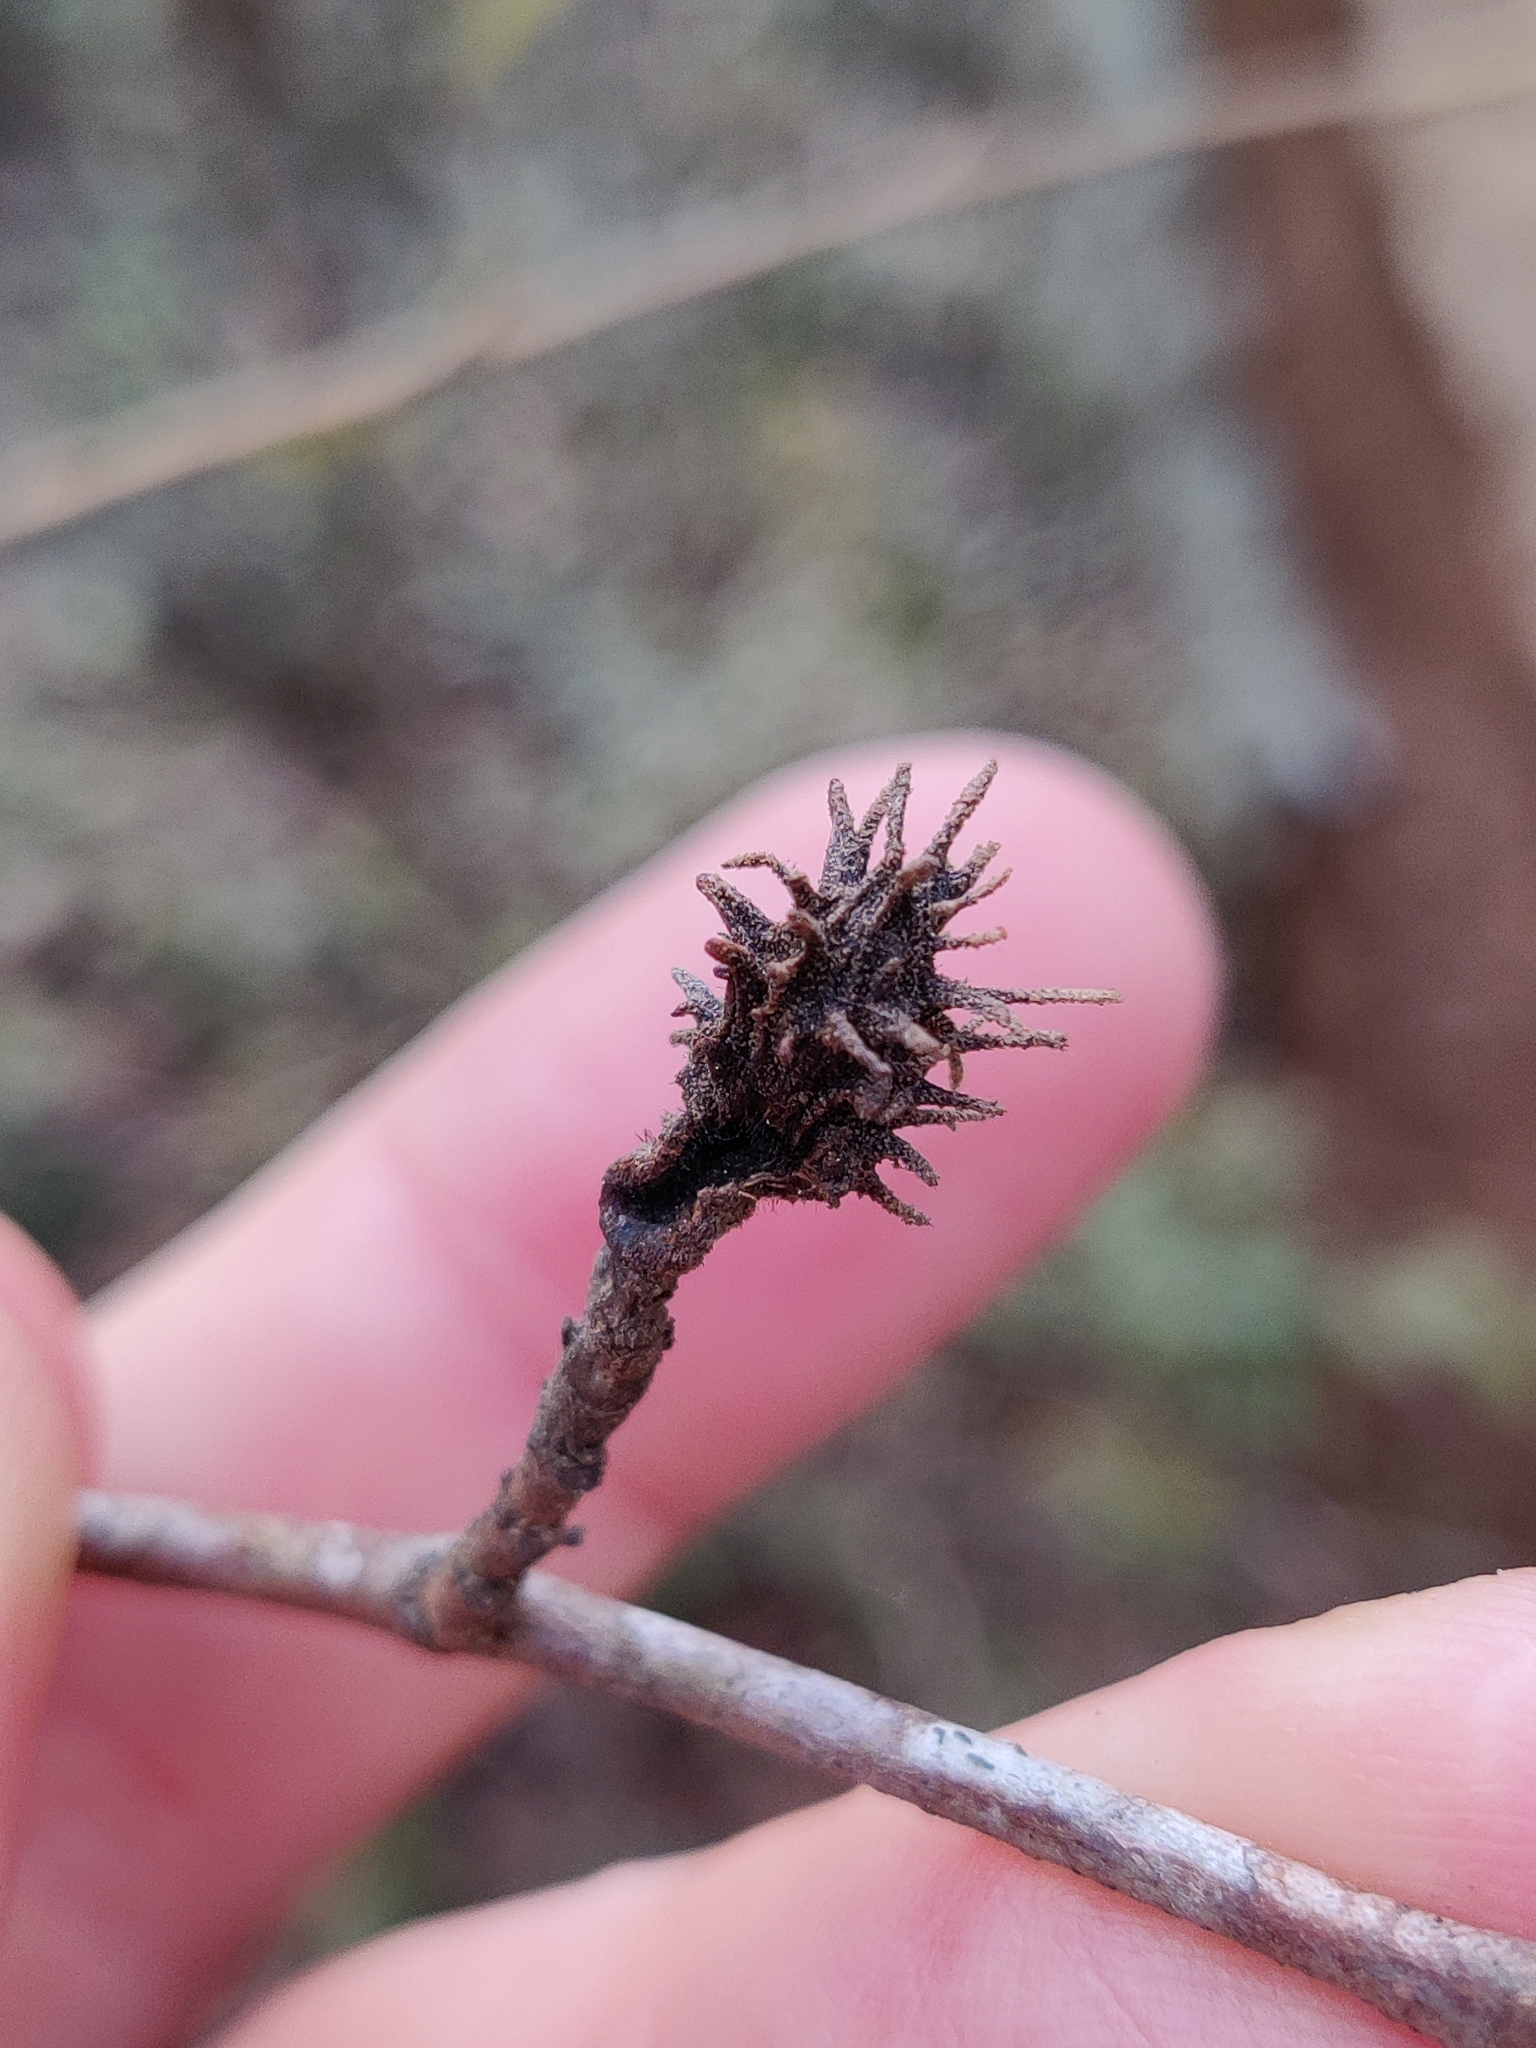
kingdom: Animalia
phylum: Arthropoda
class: Insecta
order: Hemiptera
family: Aphididae
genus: Hamamelistes
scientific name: Hamamelistes spinosus
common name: Witch hazel gall aphid
